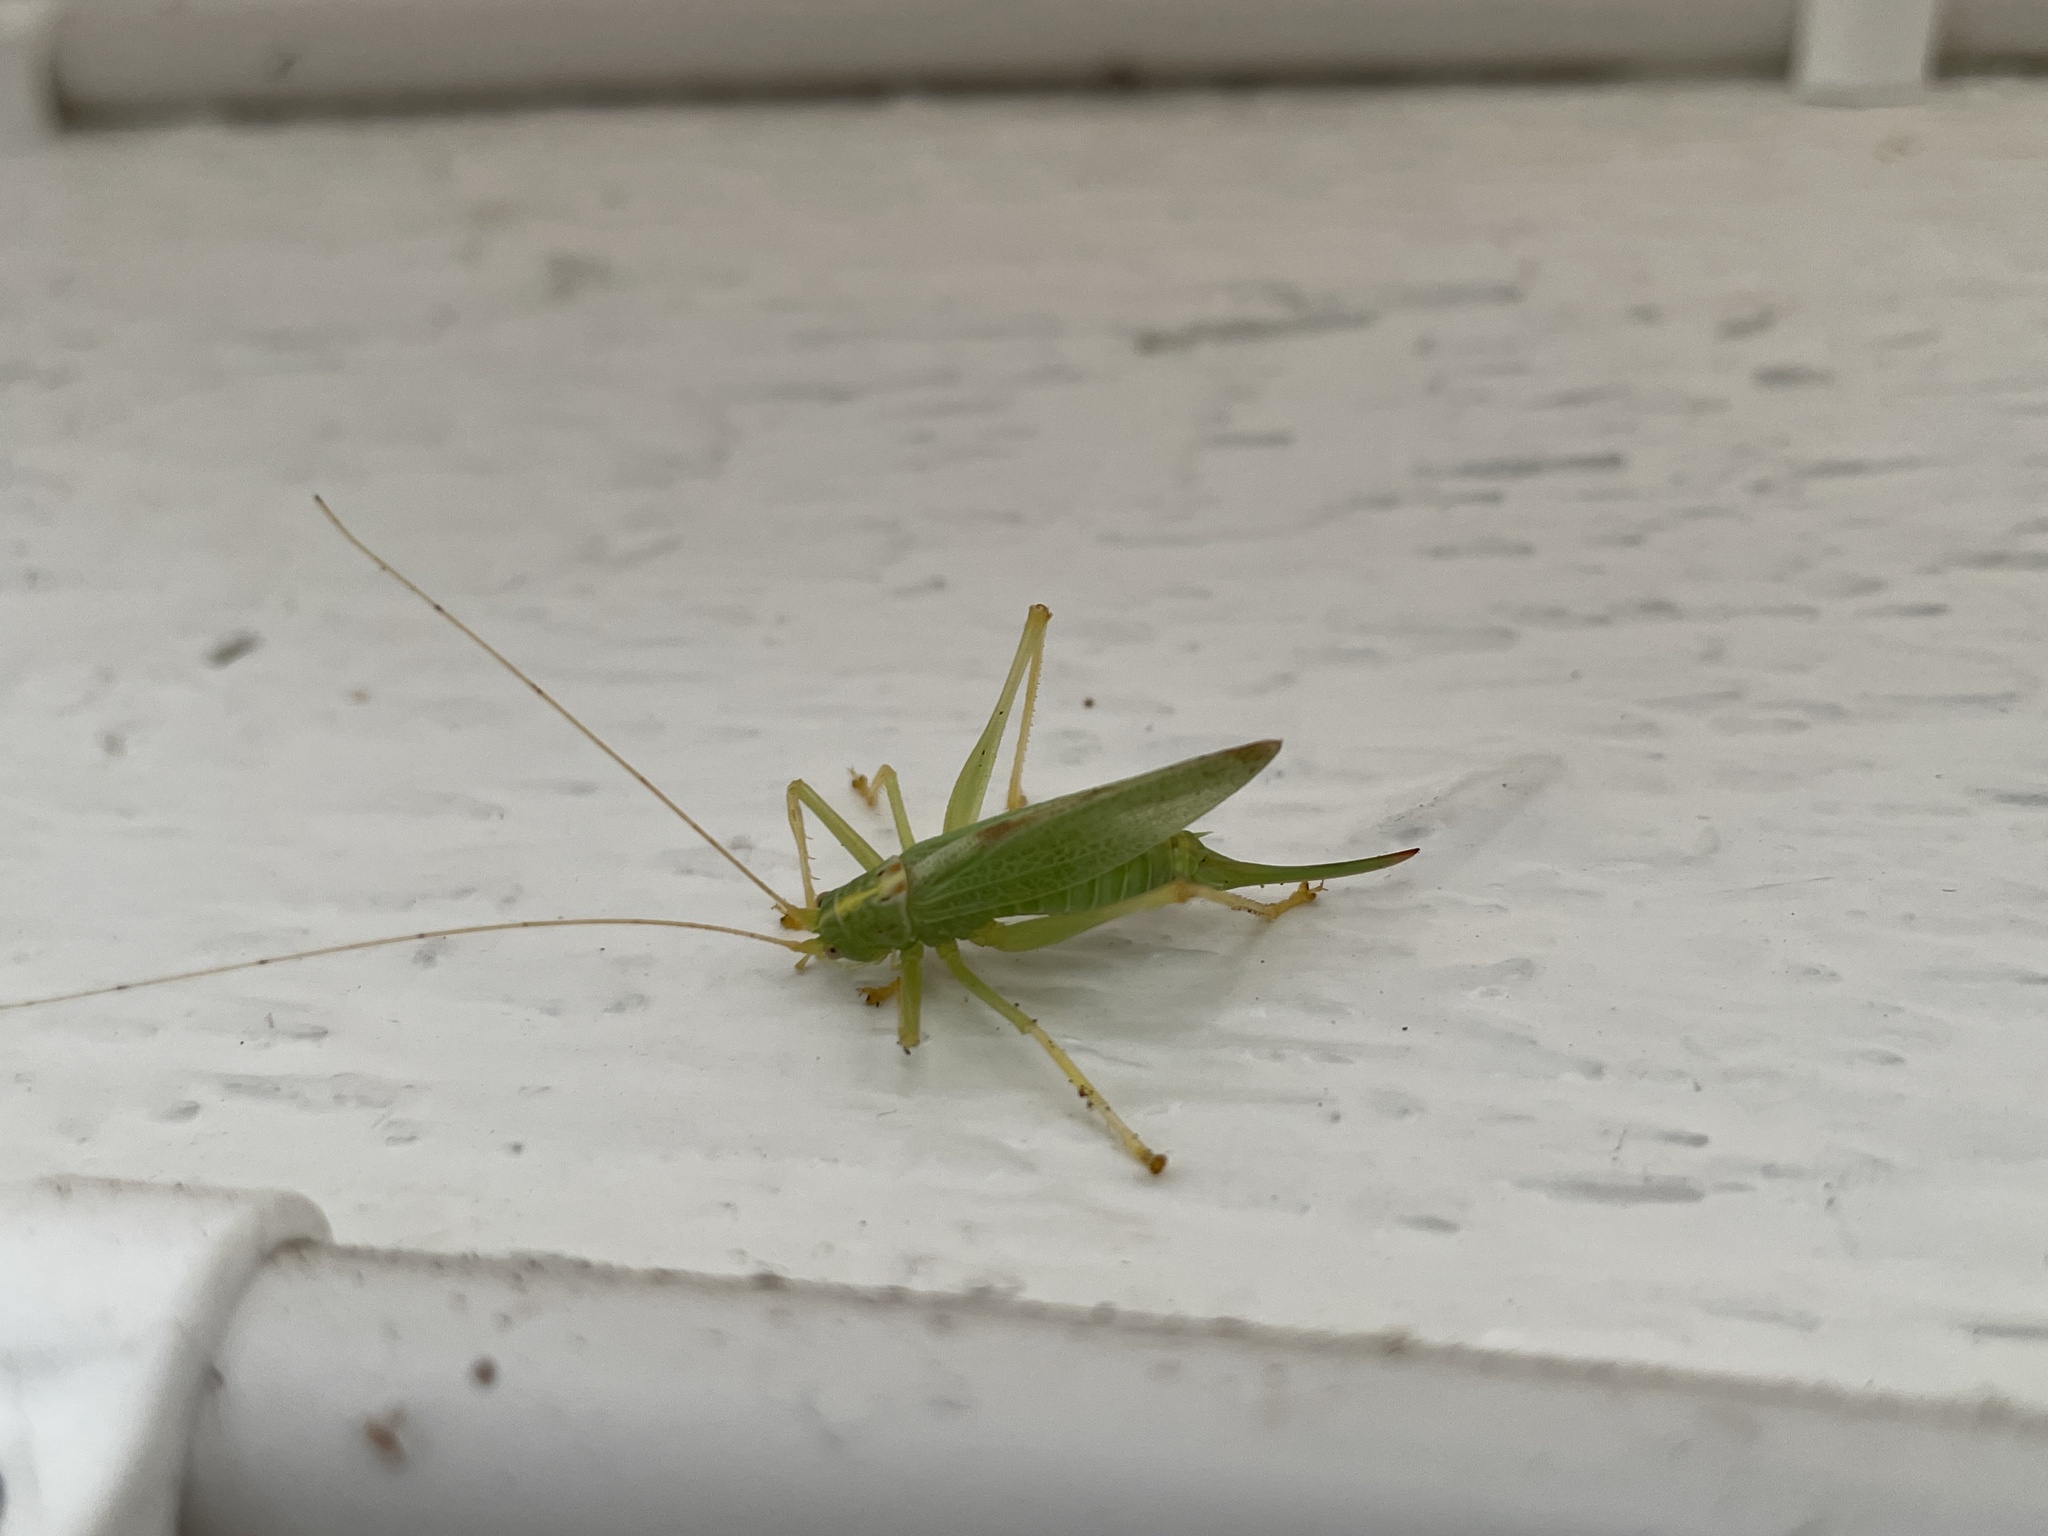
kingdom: Animalia
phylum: Arthropoda
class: Insecta
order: Orthoptera
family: Tettigoniidae
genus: Meconema
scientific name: Meconema thalassinum
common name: Oak bush-cricket
